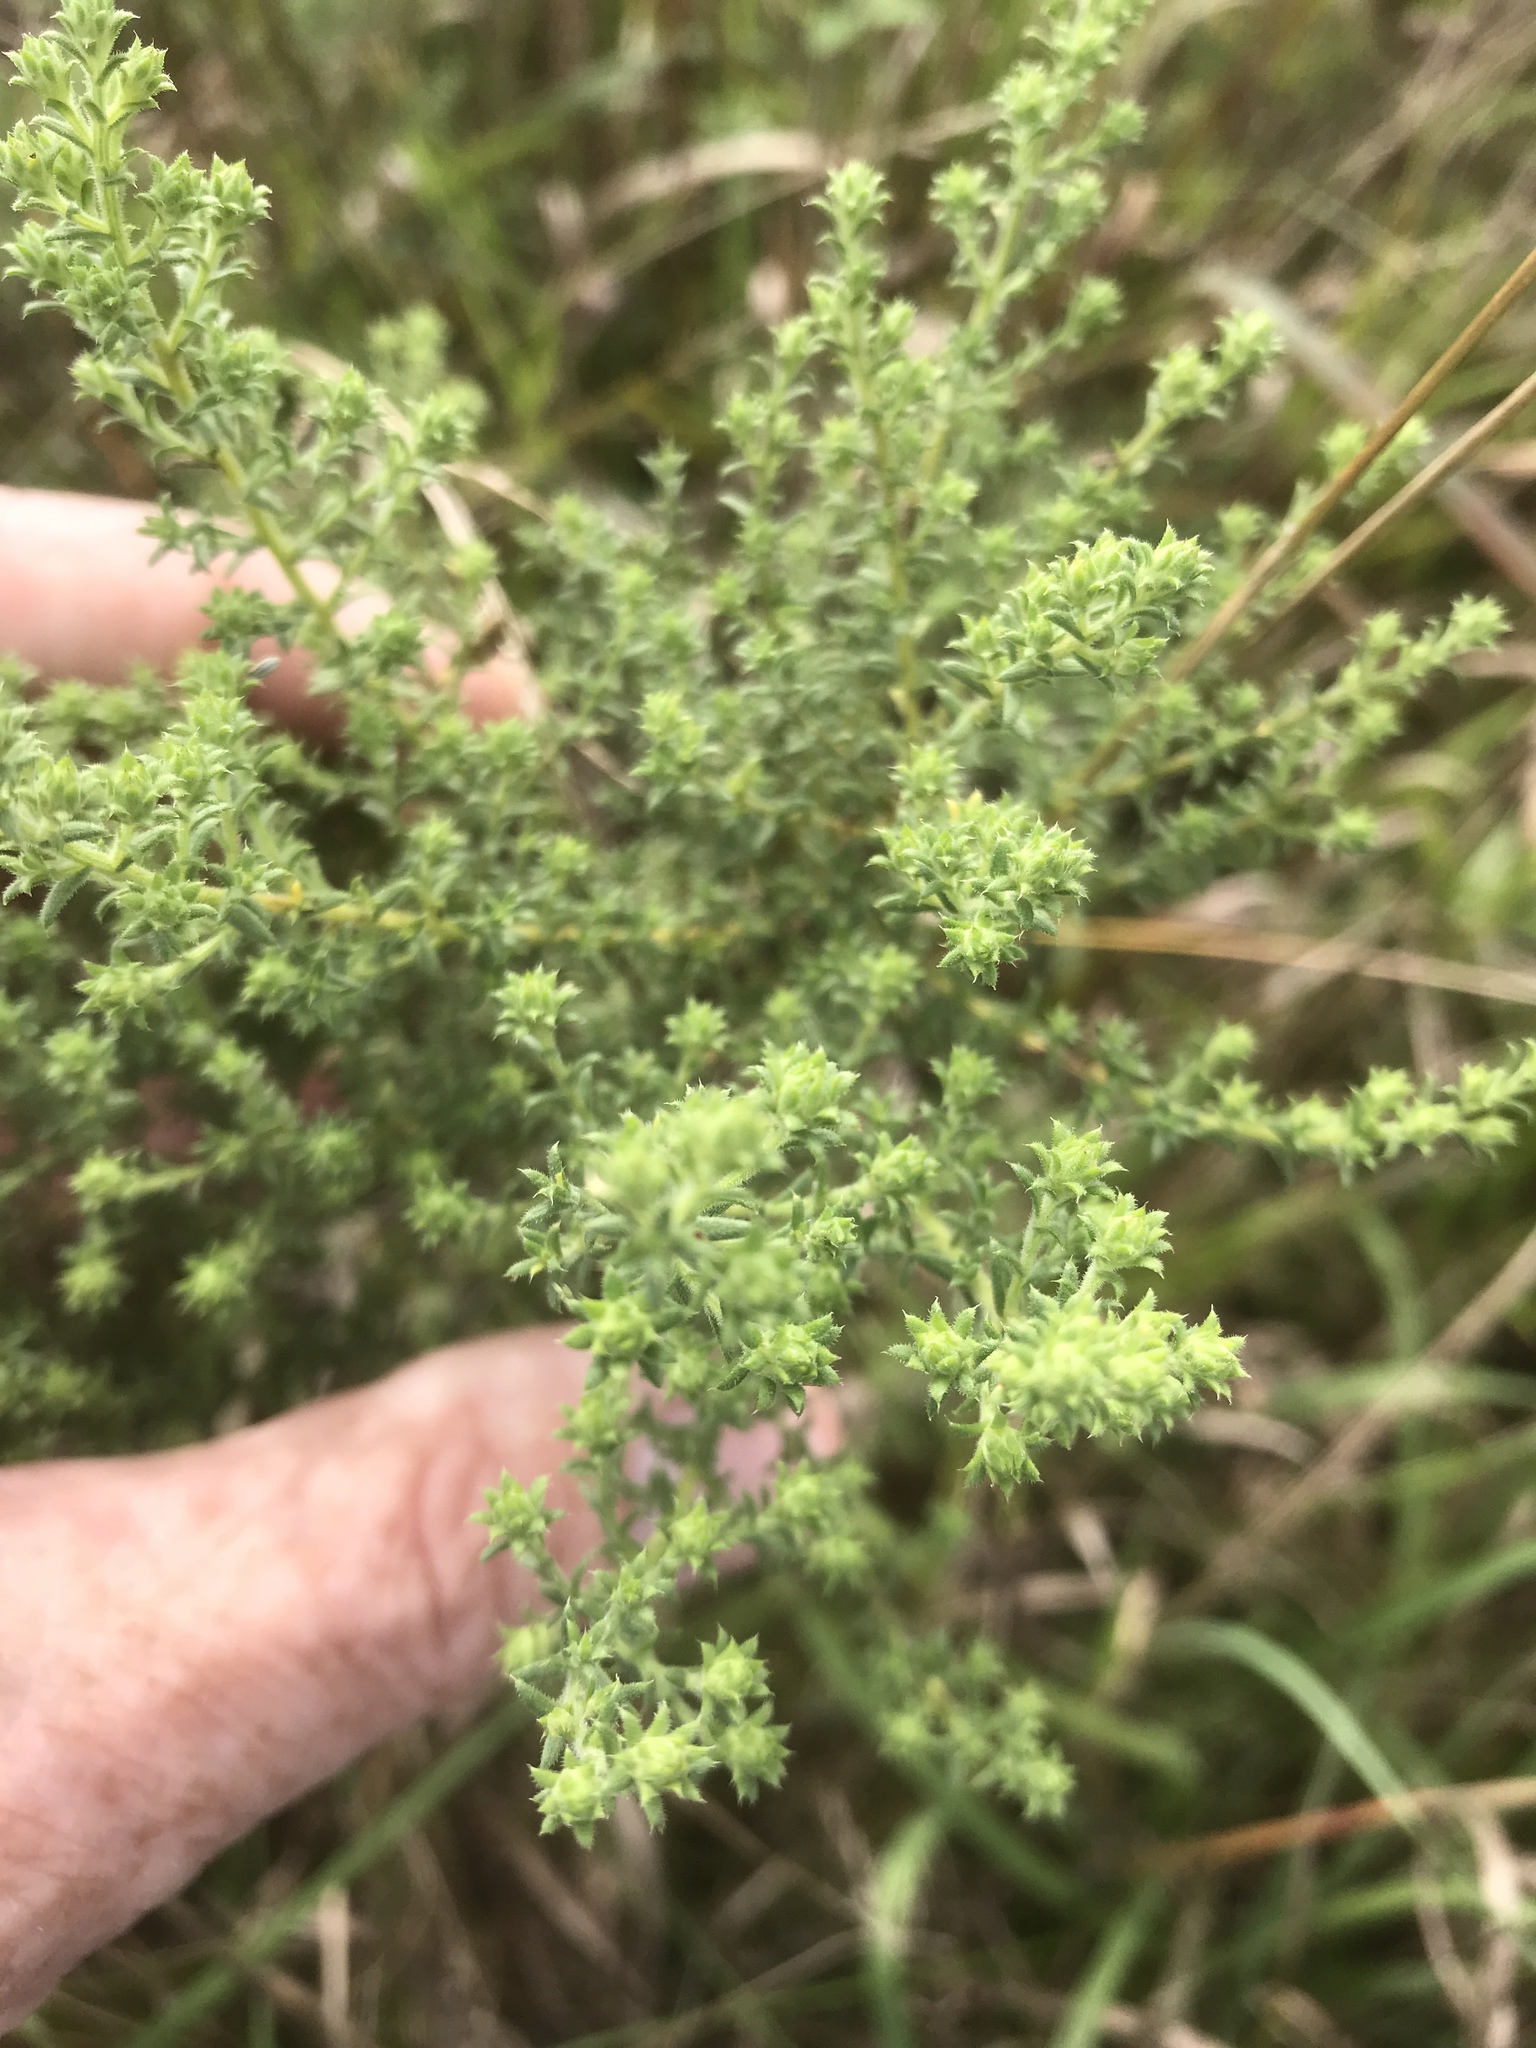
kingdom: Plantae
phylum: Tracheophyta
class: Magnoliopsida
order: Asterales
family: Asteraceae
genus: Symphyotrichum
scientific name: Symphyotrichum ericoides
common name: Heath aster
